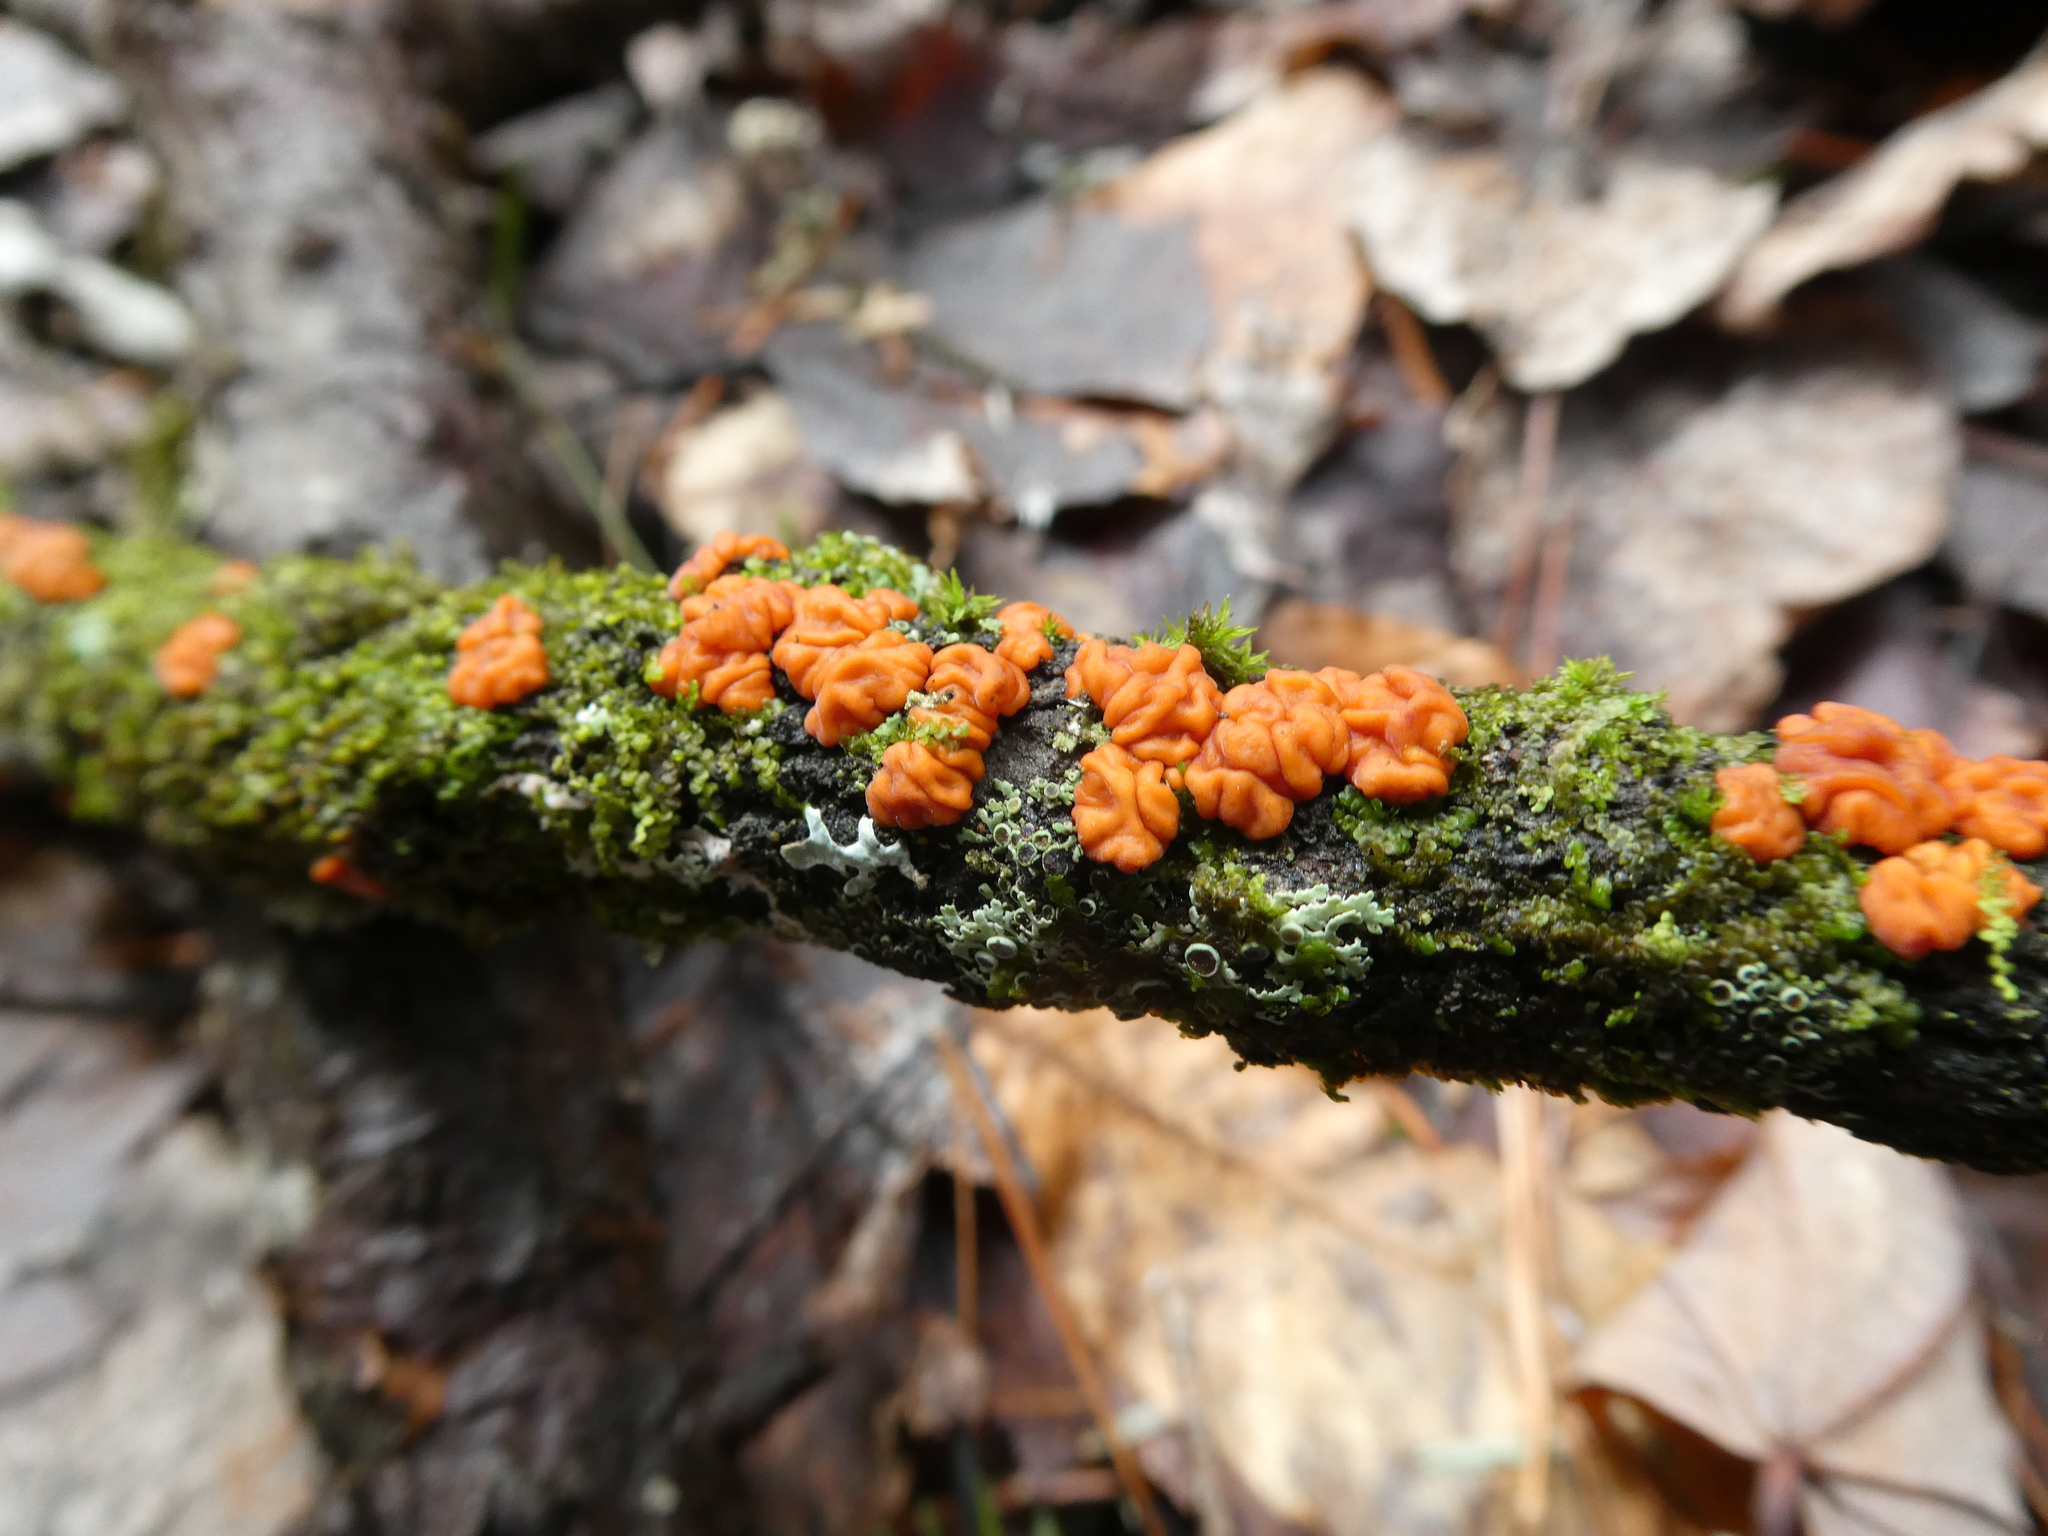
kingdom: Fungi
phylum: Basidiomycota
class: Agaricomycetes
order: Russulales
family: Peniophoraceae
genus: Peniophora
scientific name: Peniophora rufa
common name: Red tree brain fungus
